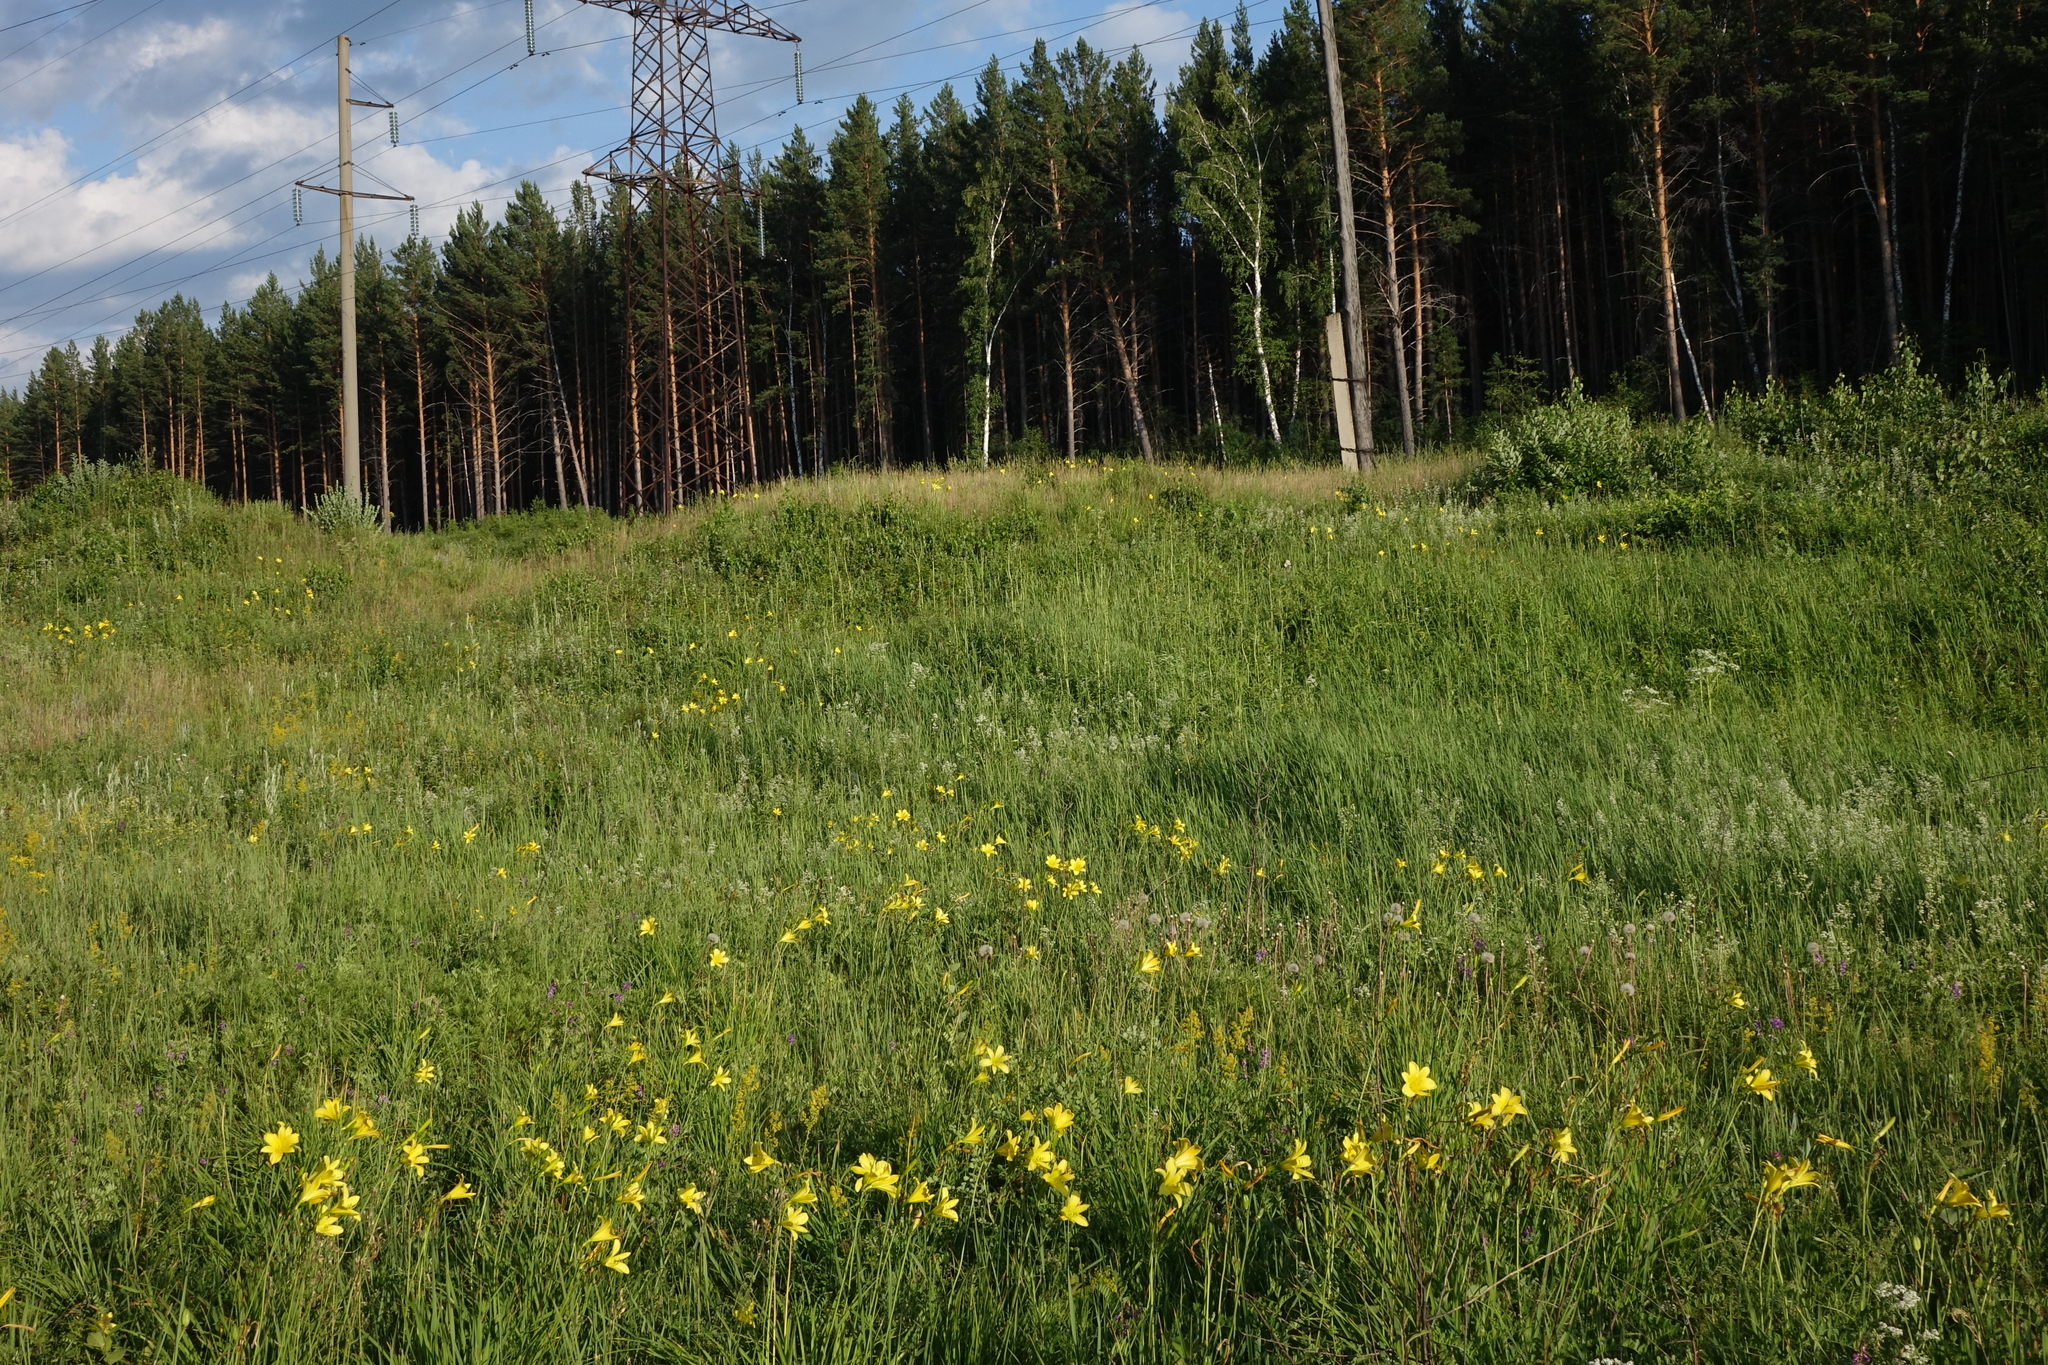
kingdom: Plantae
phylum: Tracheophyta
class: Liliopsida
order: Asparagales
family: Asphodelaceae
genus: Hemerocallis
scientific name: Hemerocallis minor
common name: Small daylily
